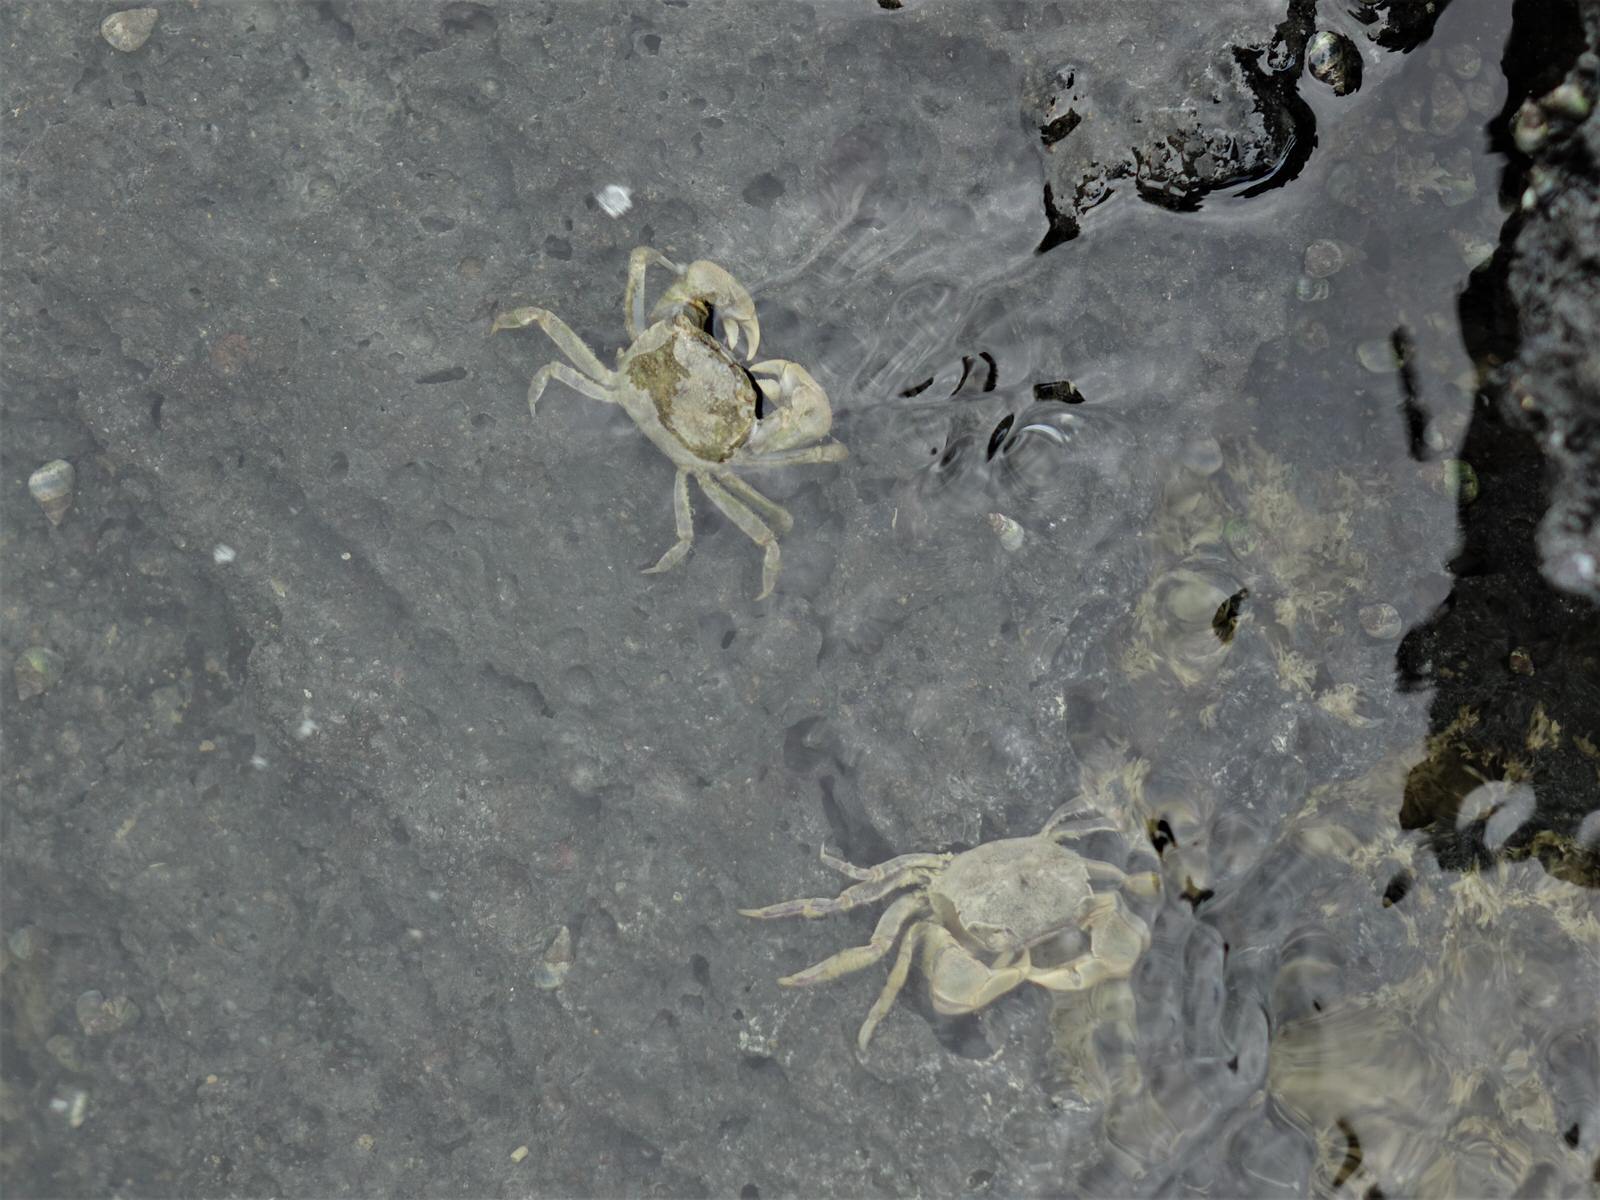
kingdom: Animalia
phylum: Arthropoda
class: Malacostraca
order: Decapoda
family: Varunidae
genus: Austrohelice
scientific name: Austrohelice crassa
